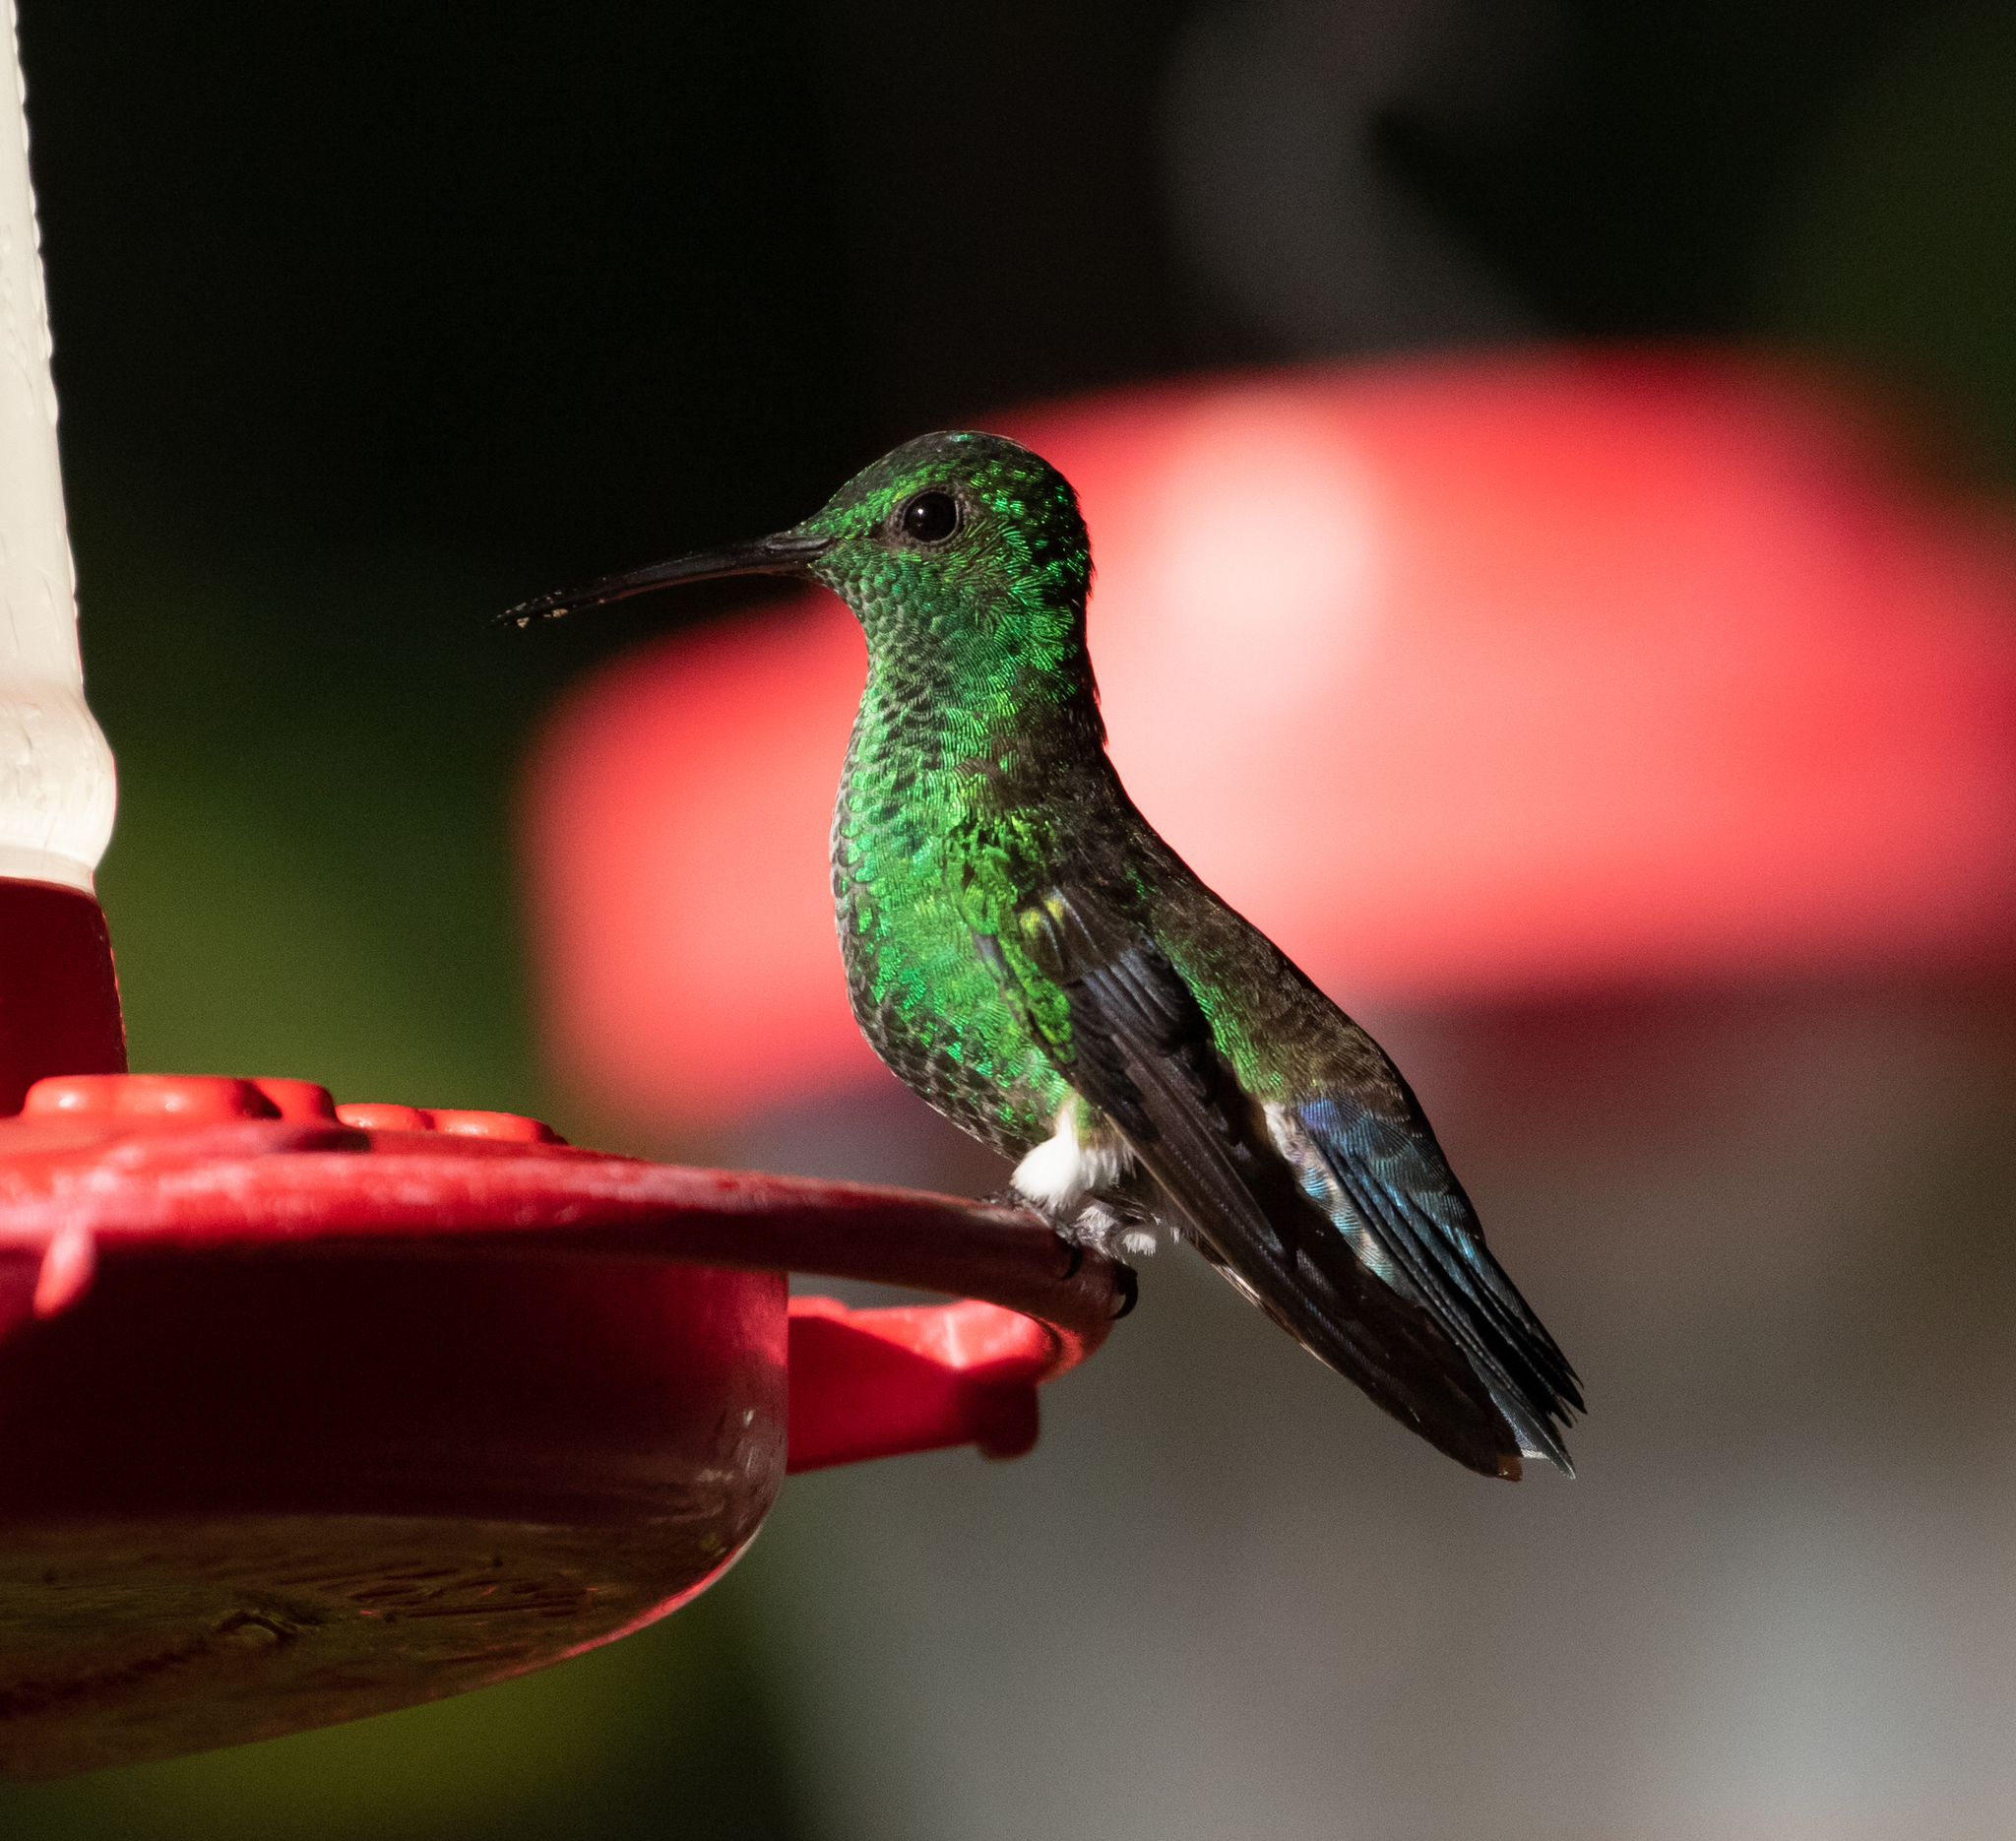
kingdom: Animalia
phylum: Chordata
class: Aves
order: Apodiformes
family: Trochilidae
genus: Saucerottia
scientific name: Saucerottia saucerottei
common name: Steely-vented hummingbird
